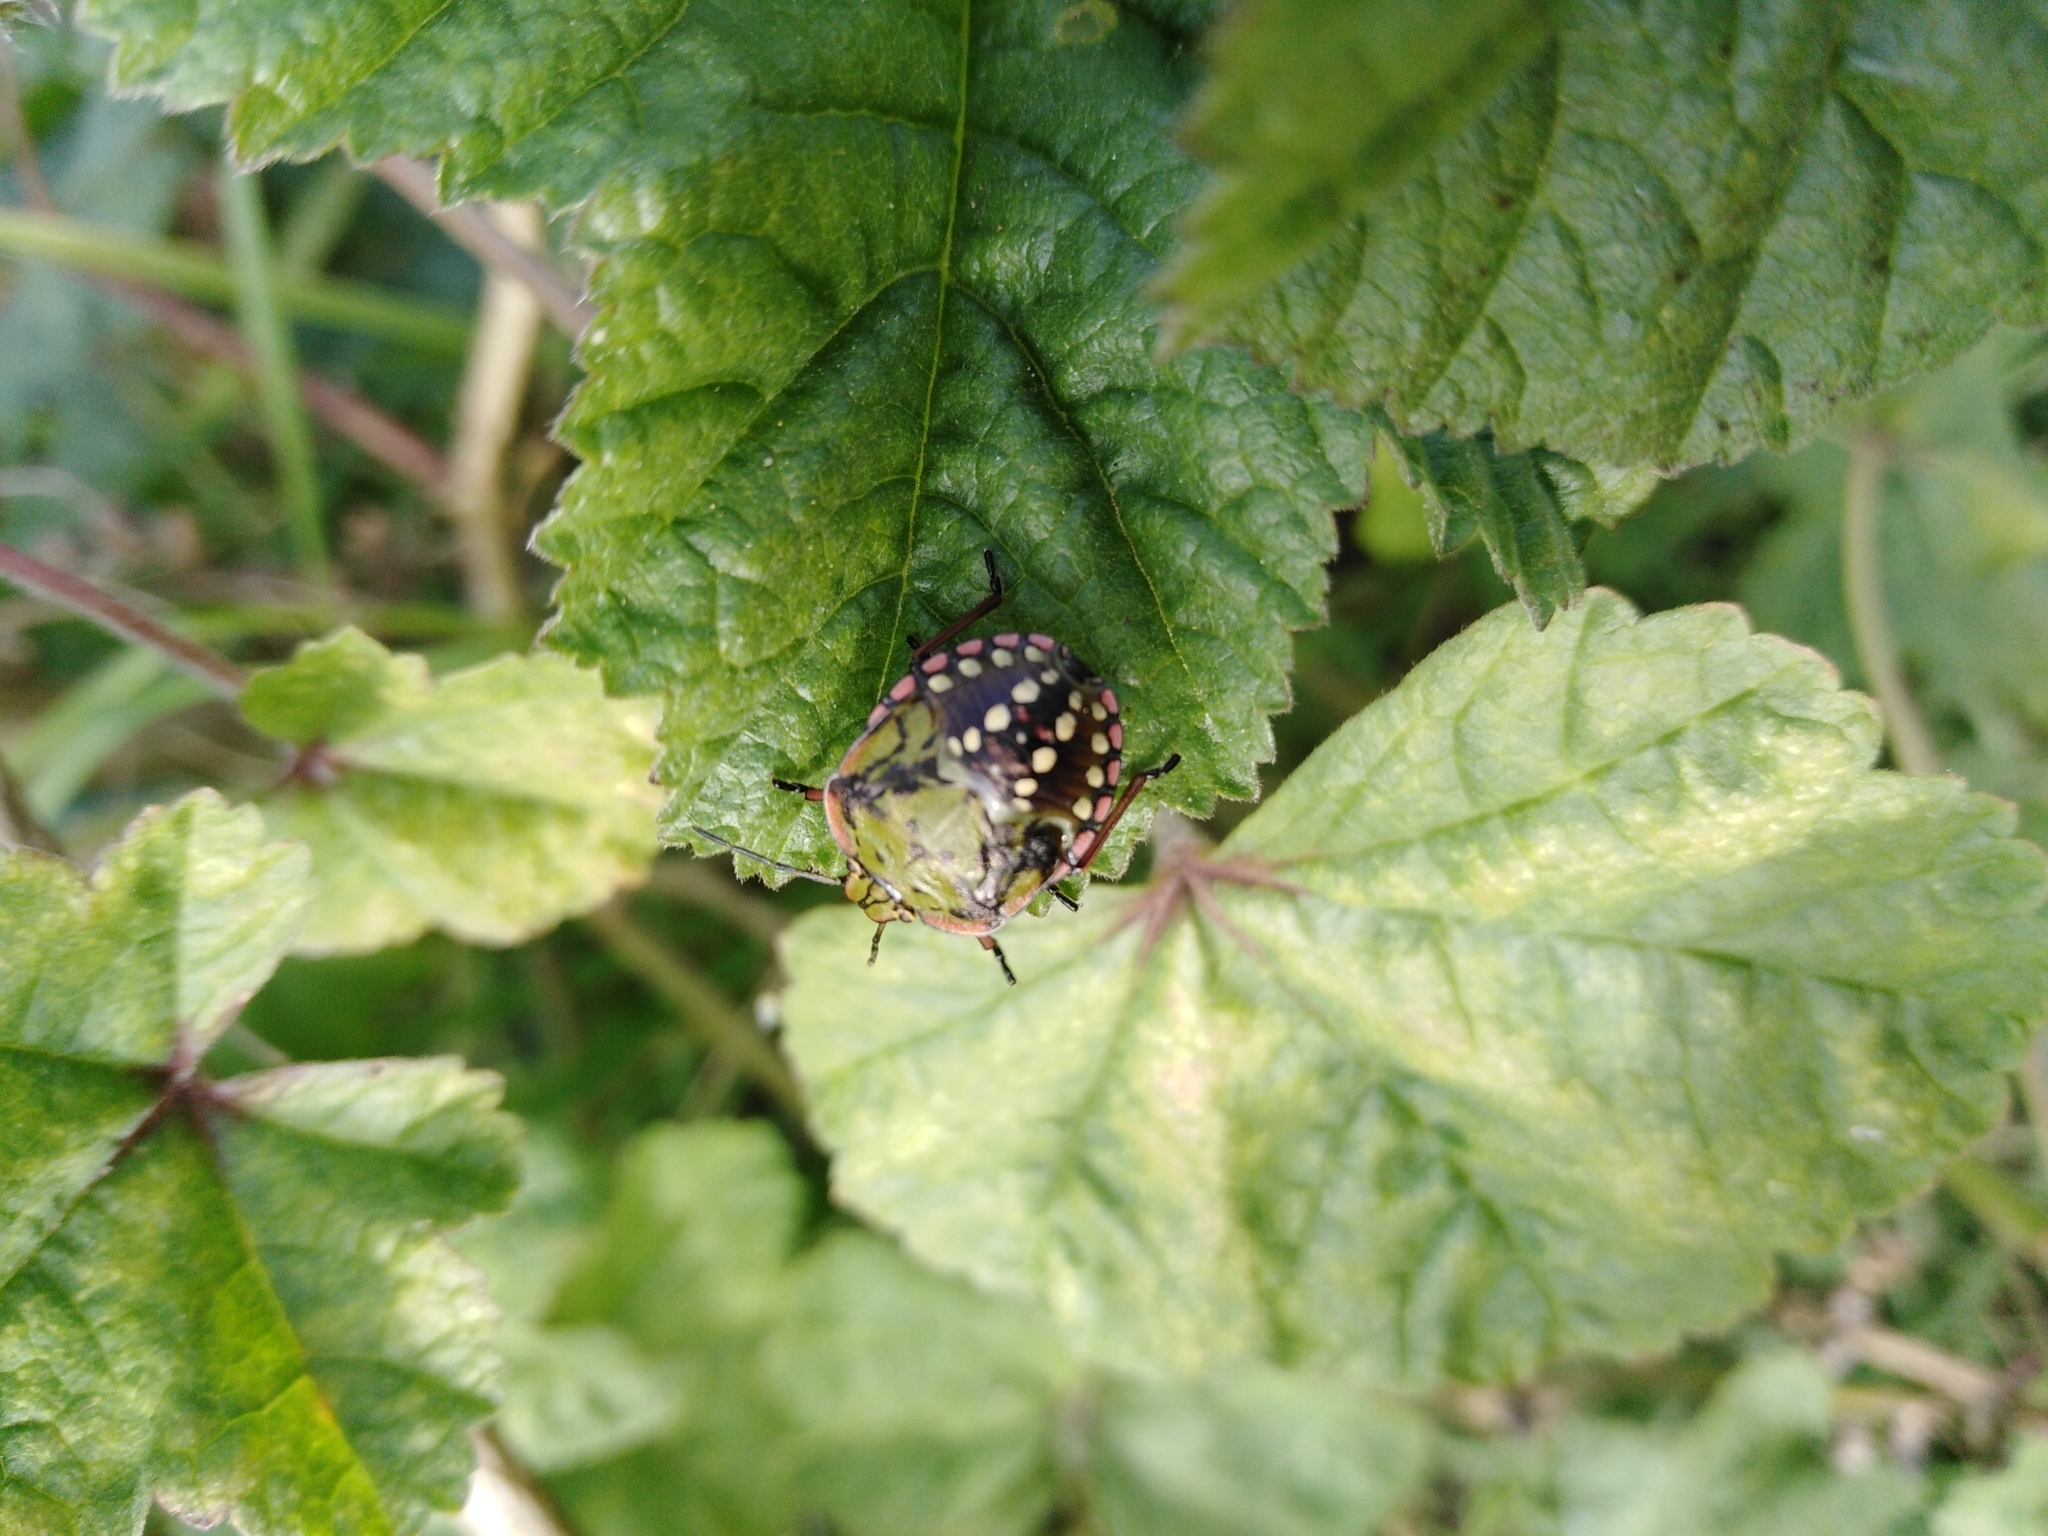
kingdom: Animalia
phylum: Arthropoda
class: Insecta
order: Hemiptera
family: Pentatomidae
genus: Nezara
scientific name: Nezara viridula
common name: Southern green stink bug
